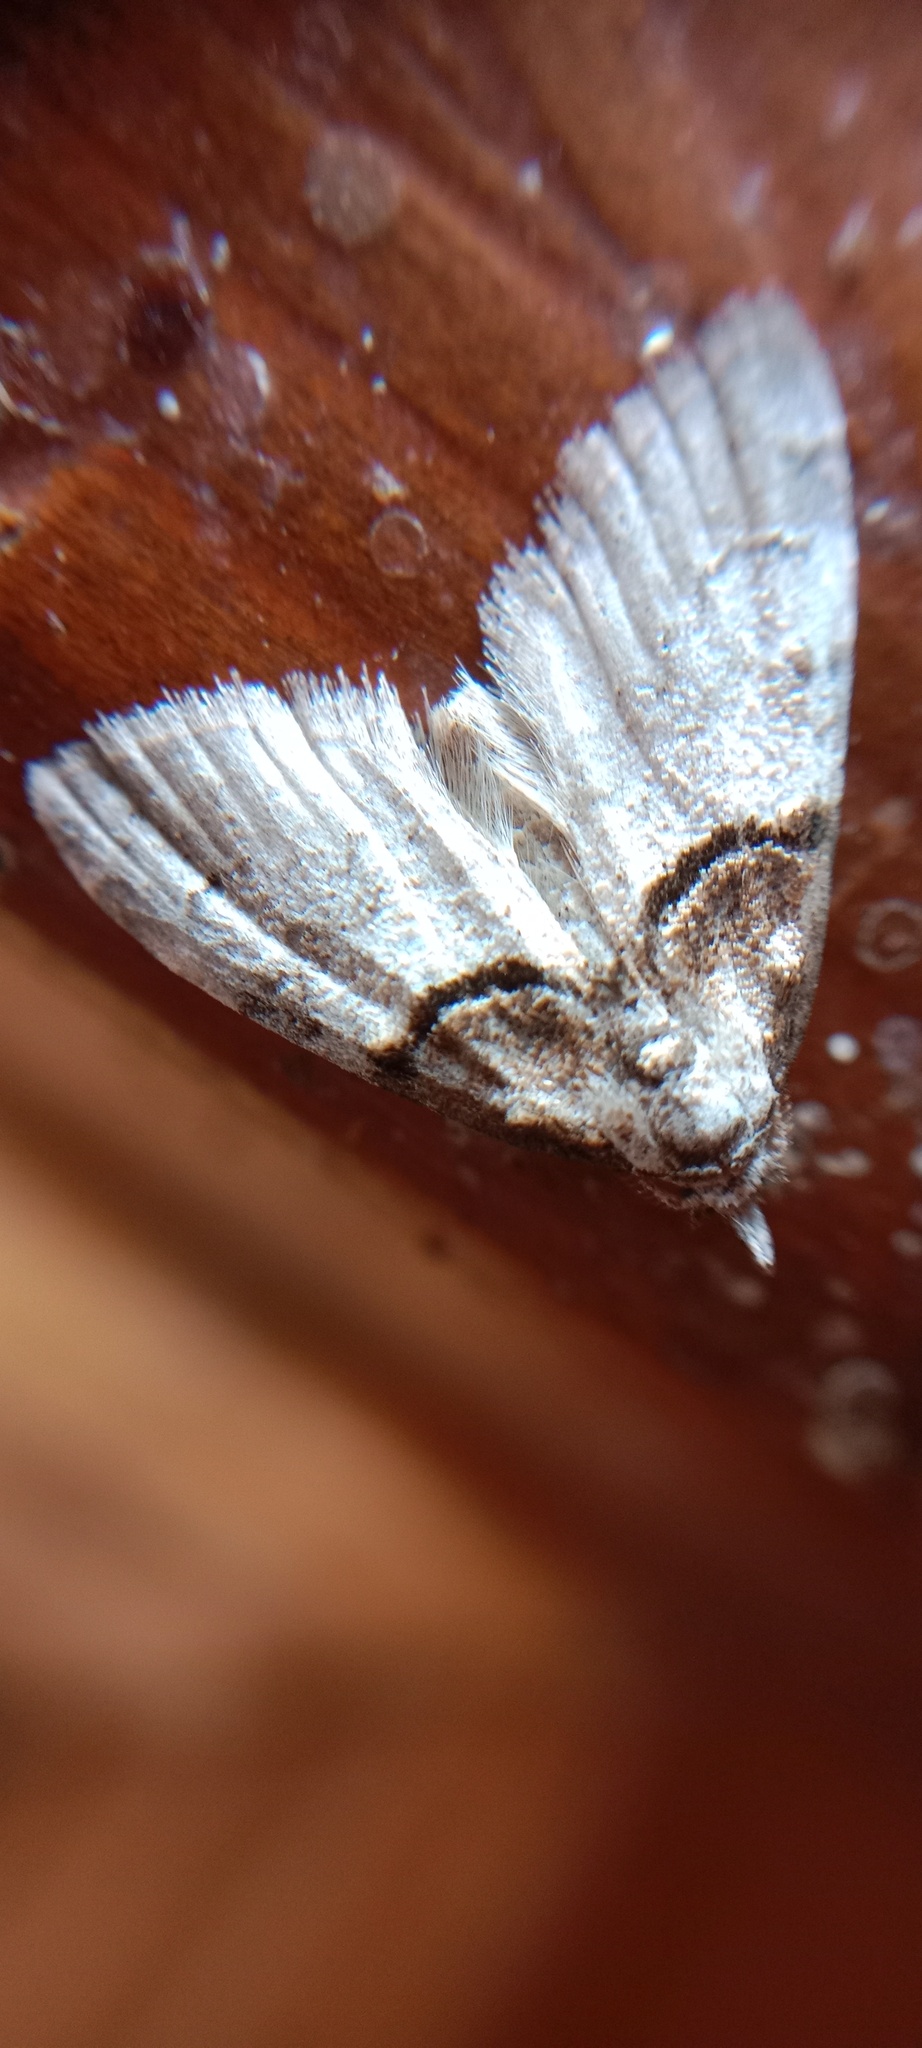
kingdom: Animalia
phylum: Arthropoda
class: Insecta
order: Lepidoptera
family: Nolidae
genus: Nola
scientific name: Nola cucullatella
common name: Short-cloaked moth
